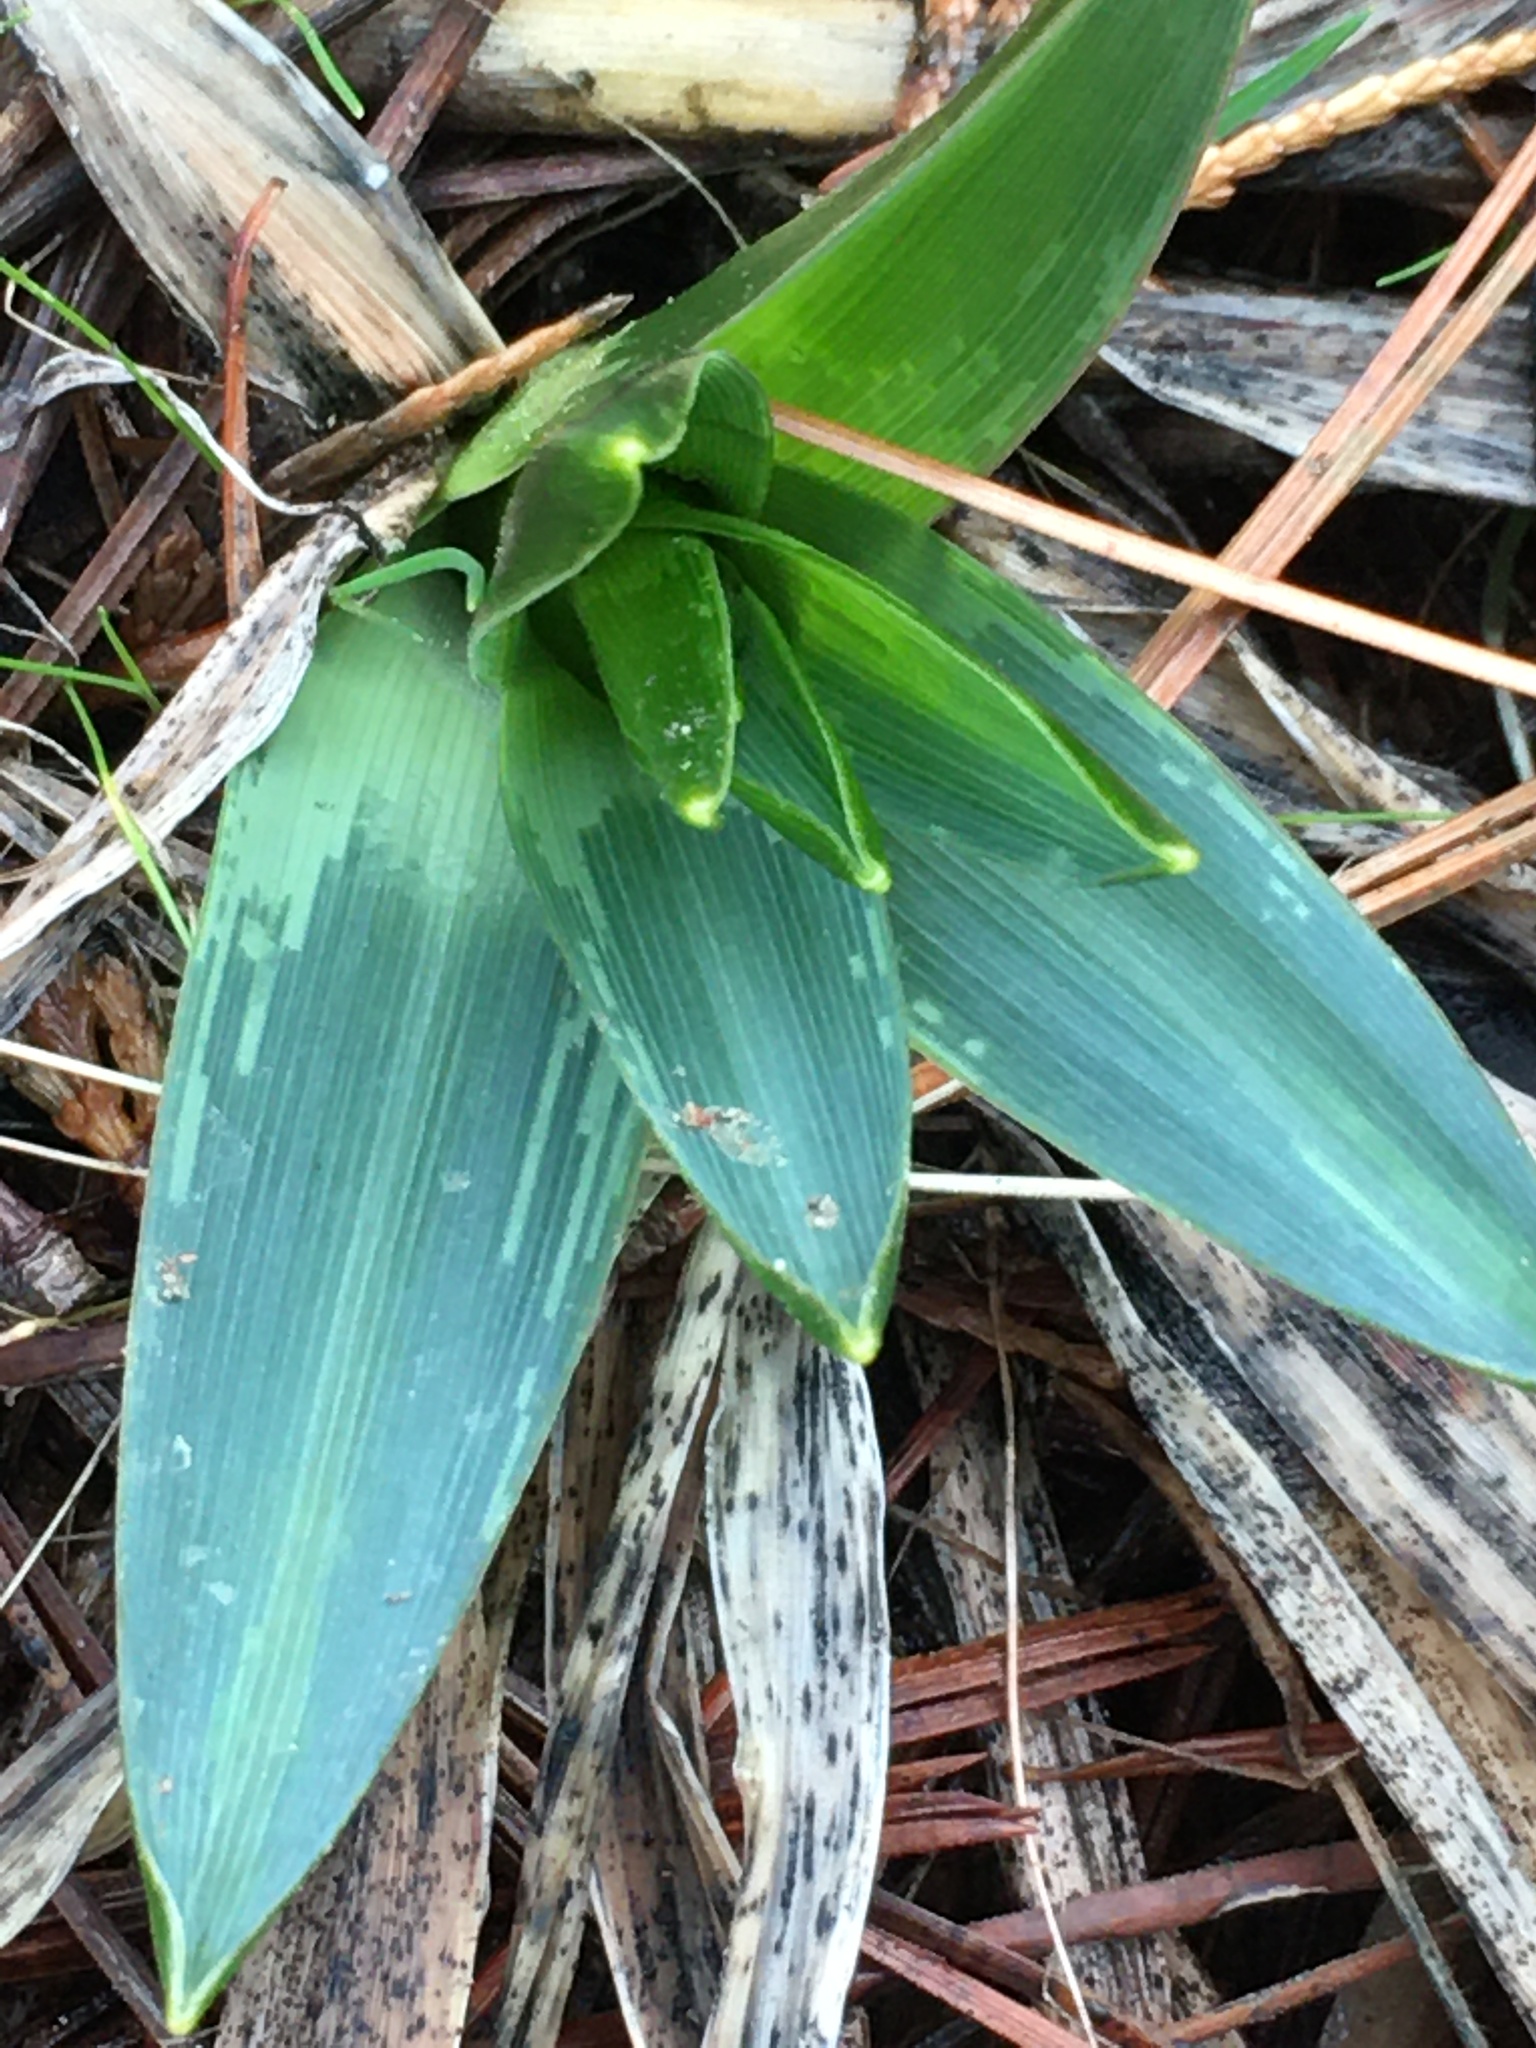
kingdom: Plantae
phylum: Tracheophyta
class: Liliopsida
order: Asparagales
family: Asparagaceae
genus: Chlorogalum
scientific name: Chlorogalum pomeridianum
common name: Amole
